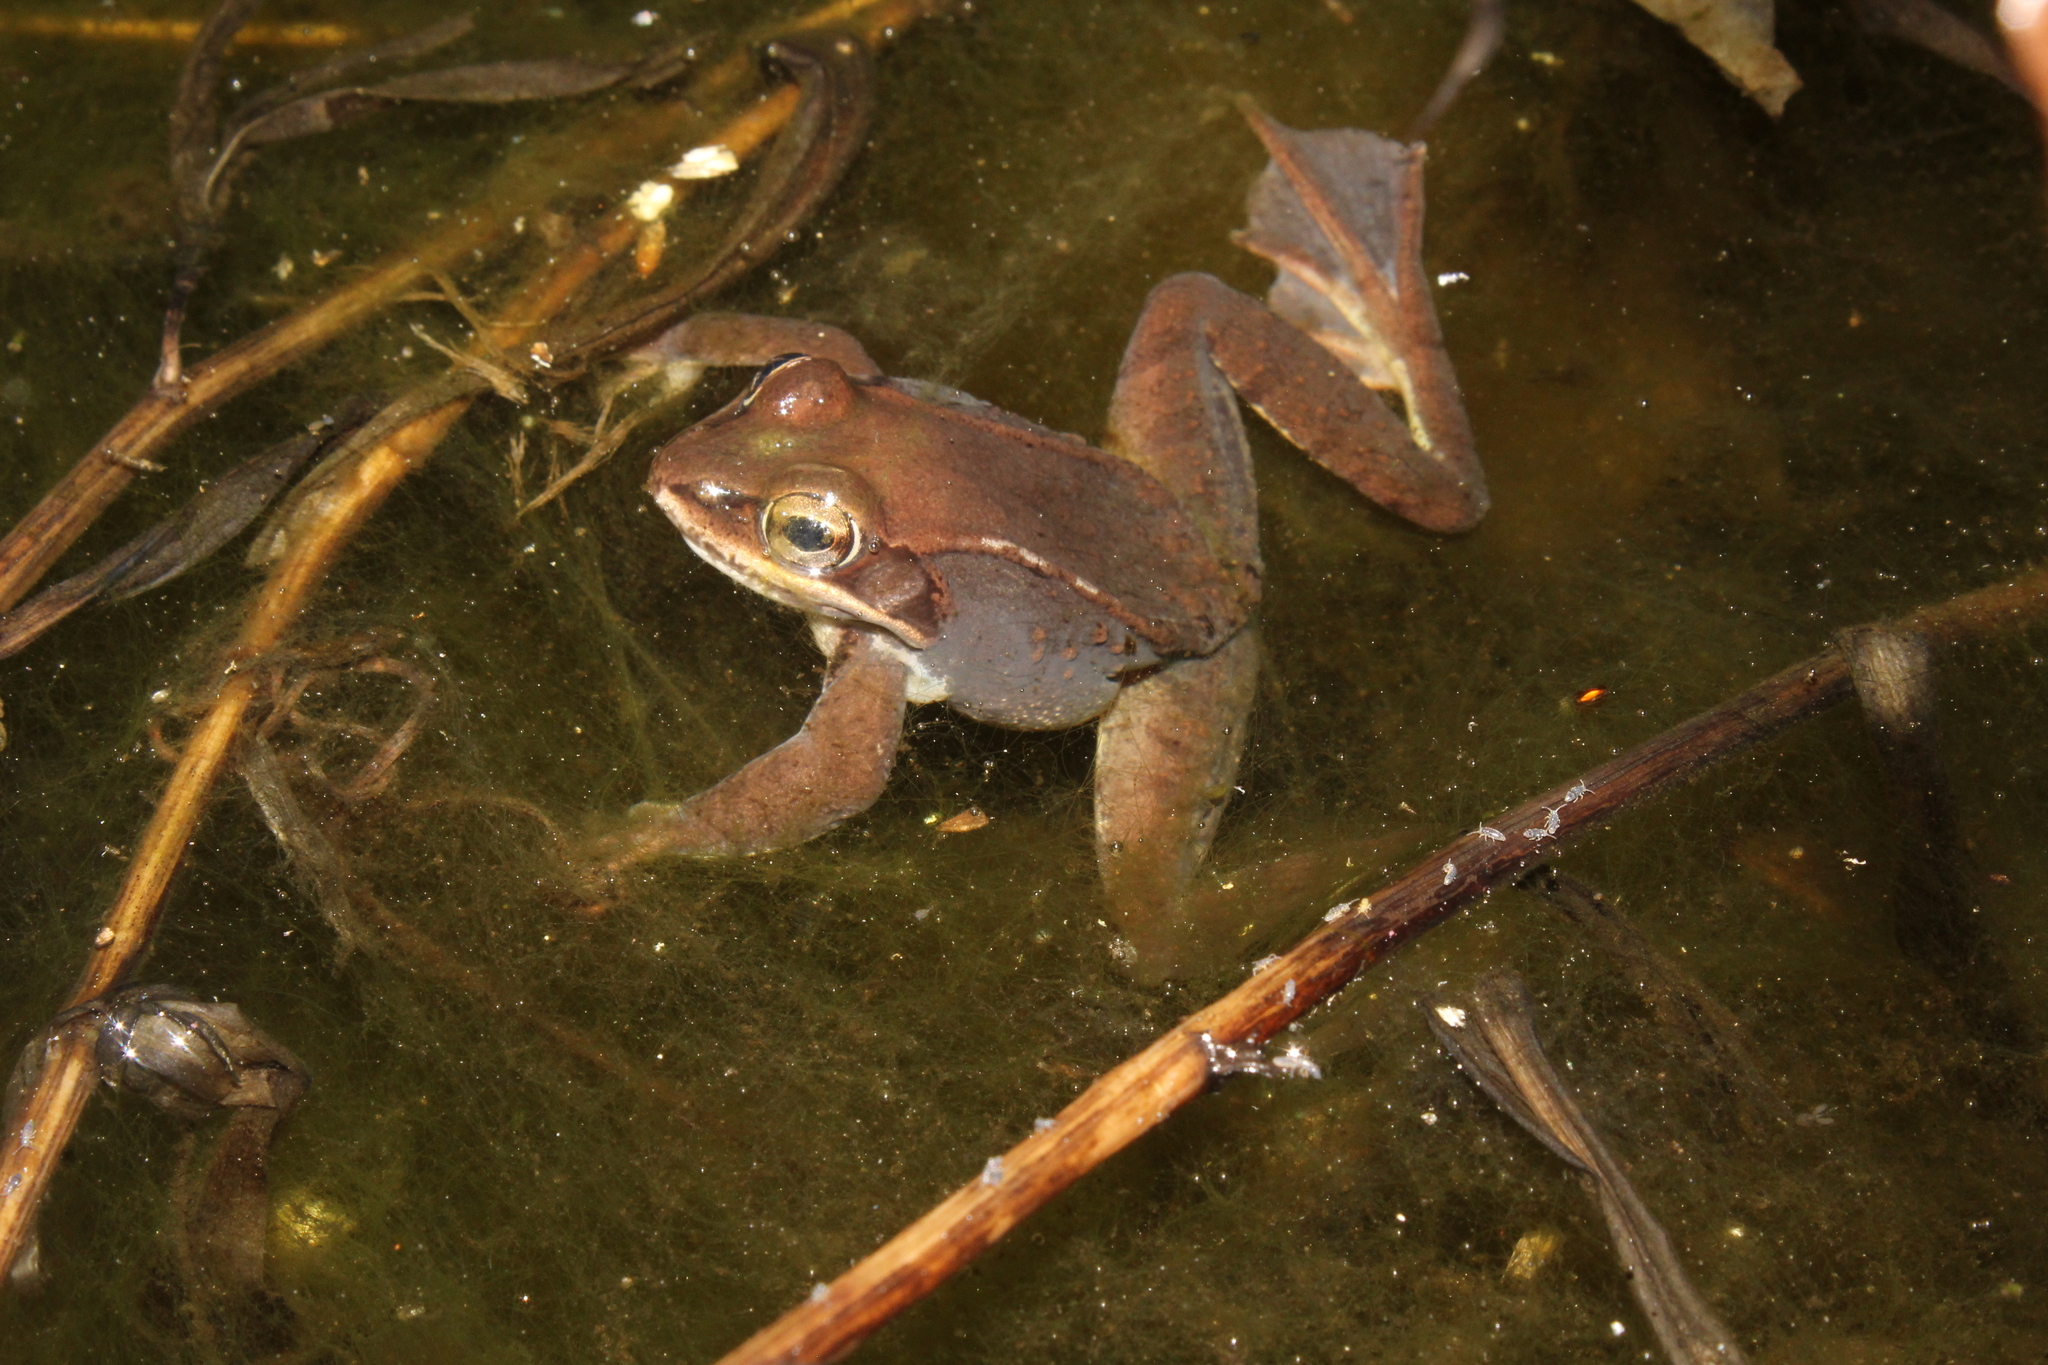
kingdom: Animalia
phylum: Chordata
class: Amphibia
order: Anura
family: Ranidae
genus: Lithobates
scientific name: Lithobates sylvaticus
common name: Wood frog
